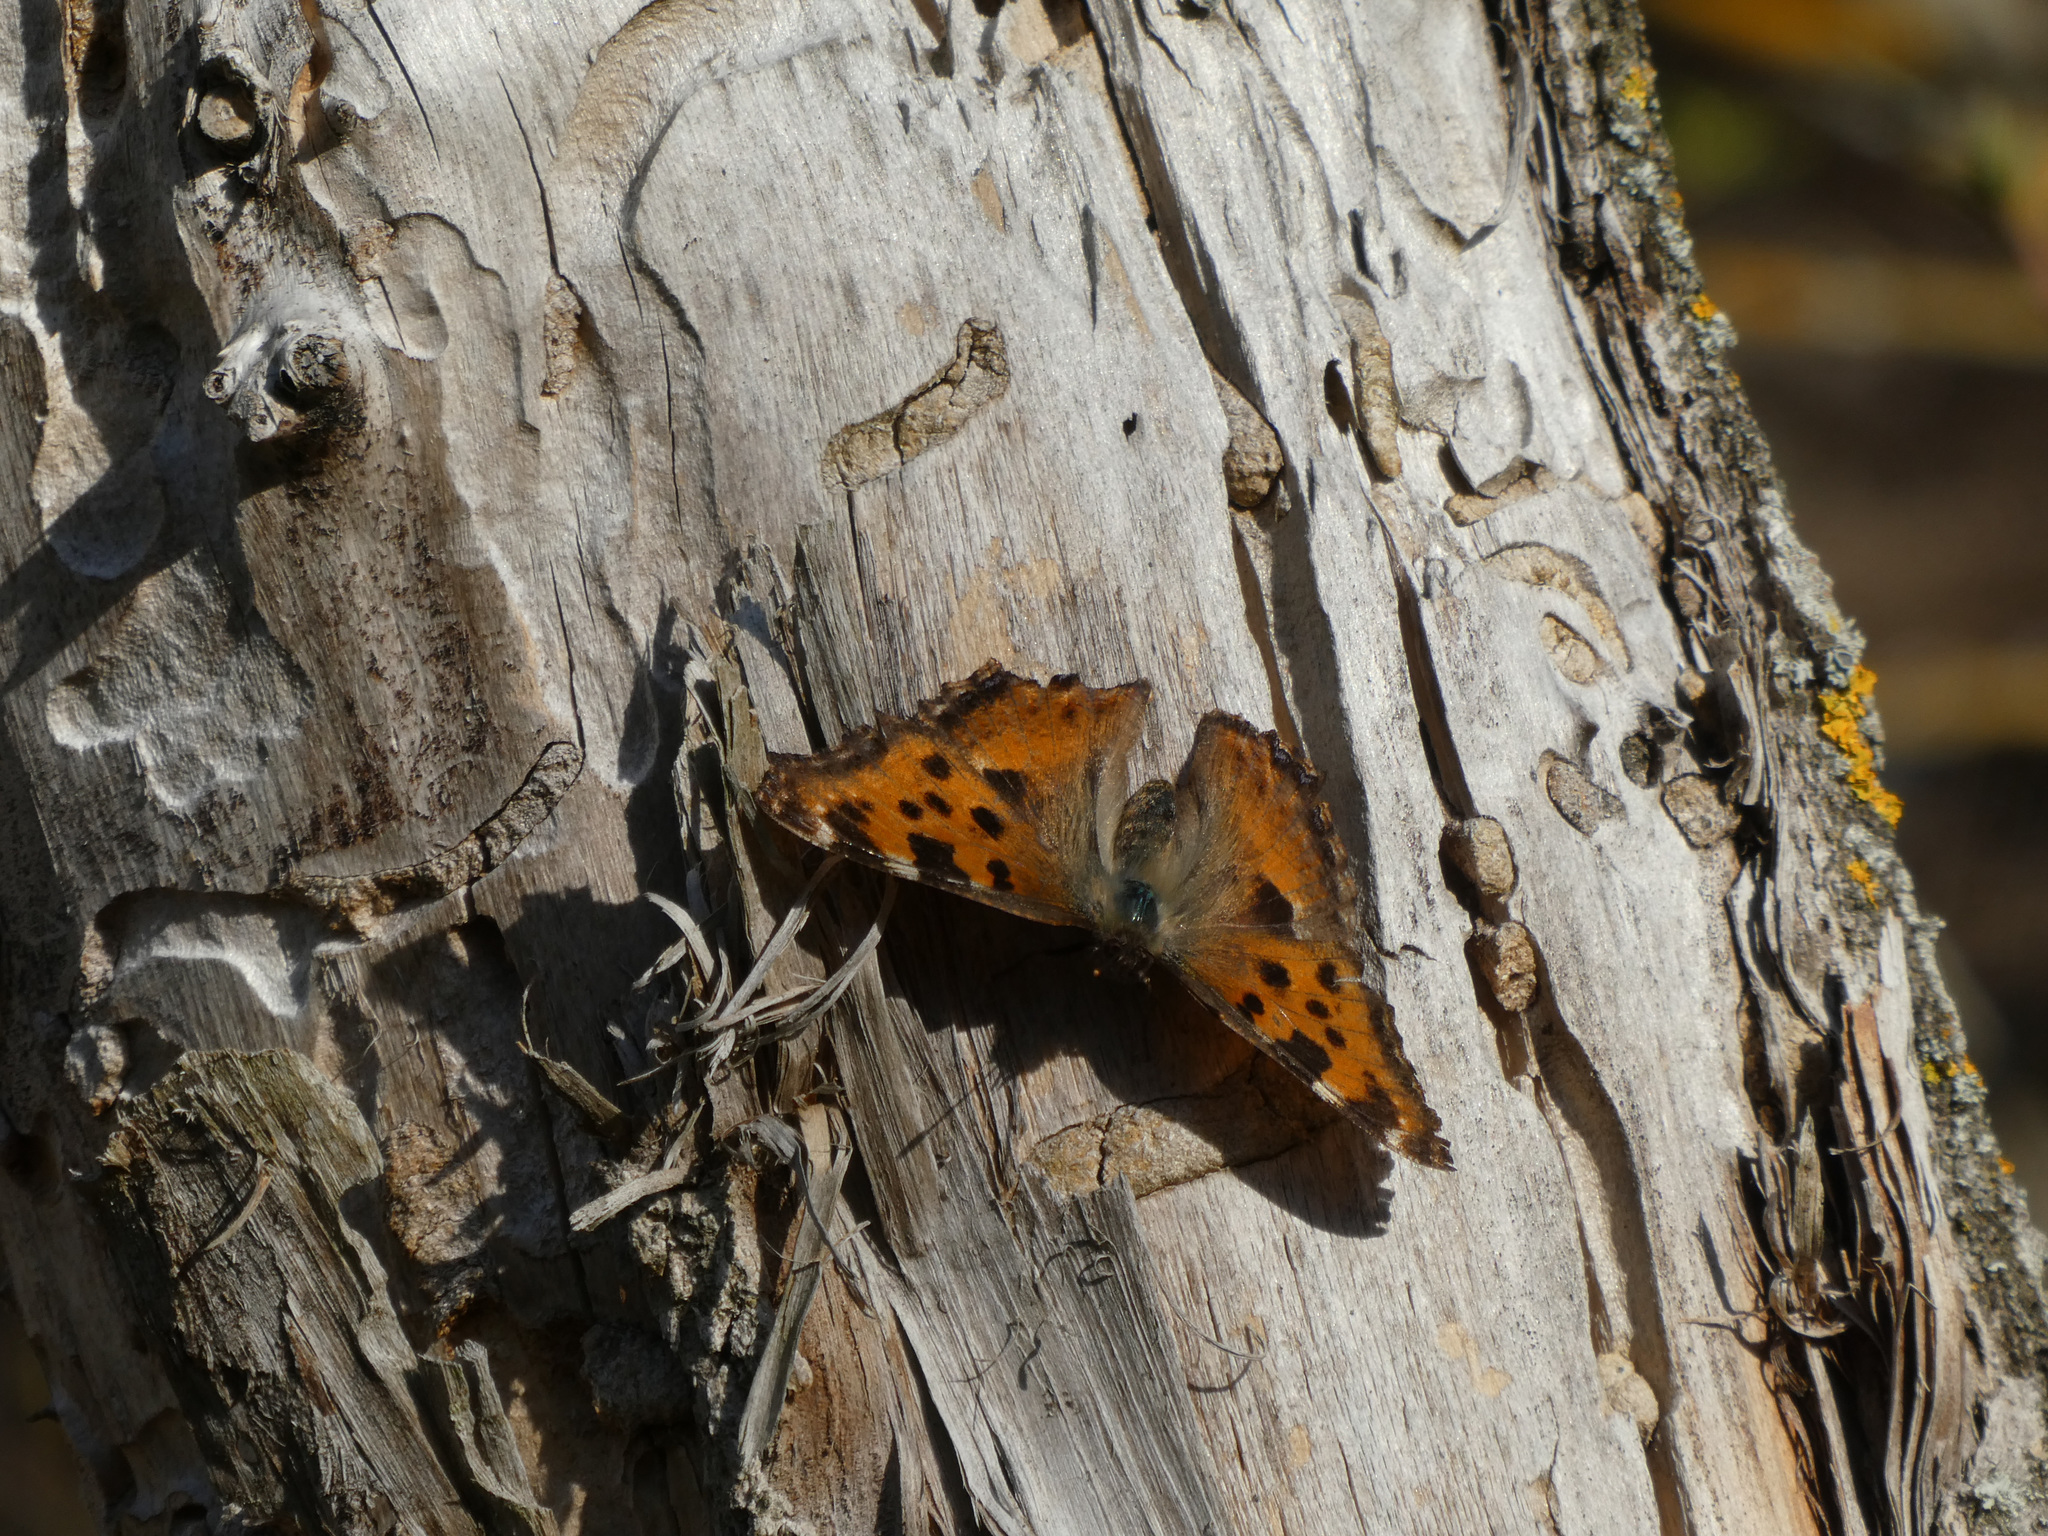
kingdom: Animalia
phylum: Arthropoda
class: Insecta
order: Lepidoptera
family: Nymphalidae
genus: Nymphalis
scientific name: Nymphalis polychloros
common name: Large tortoiseshell
